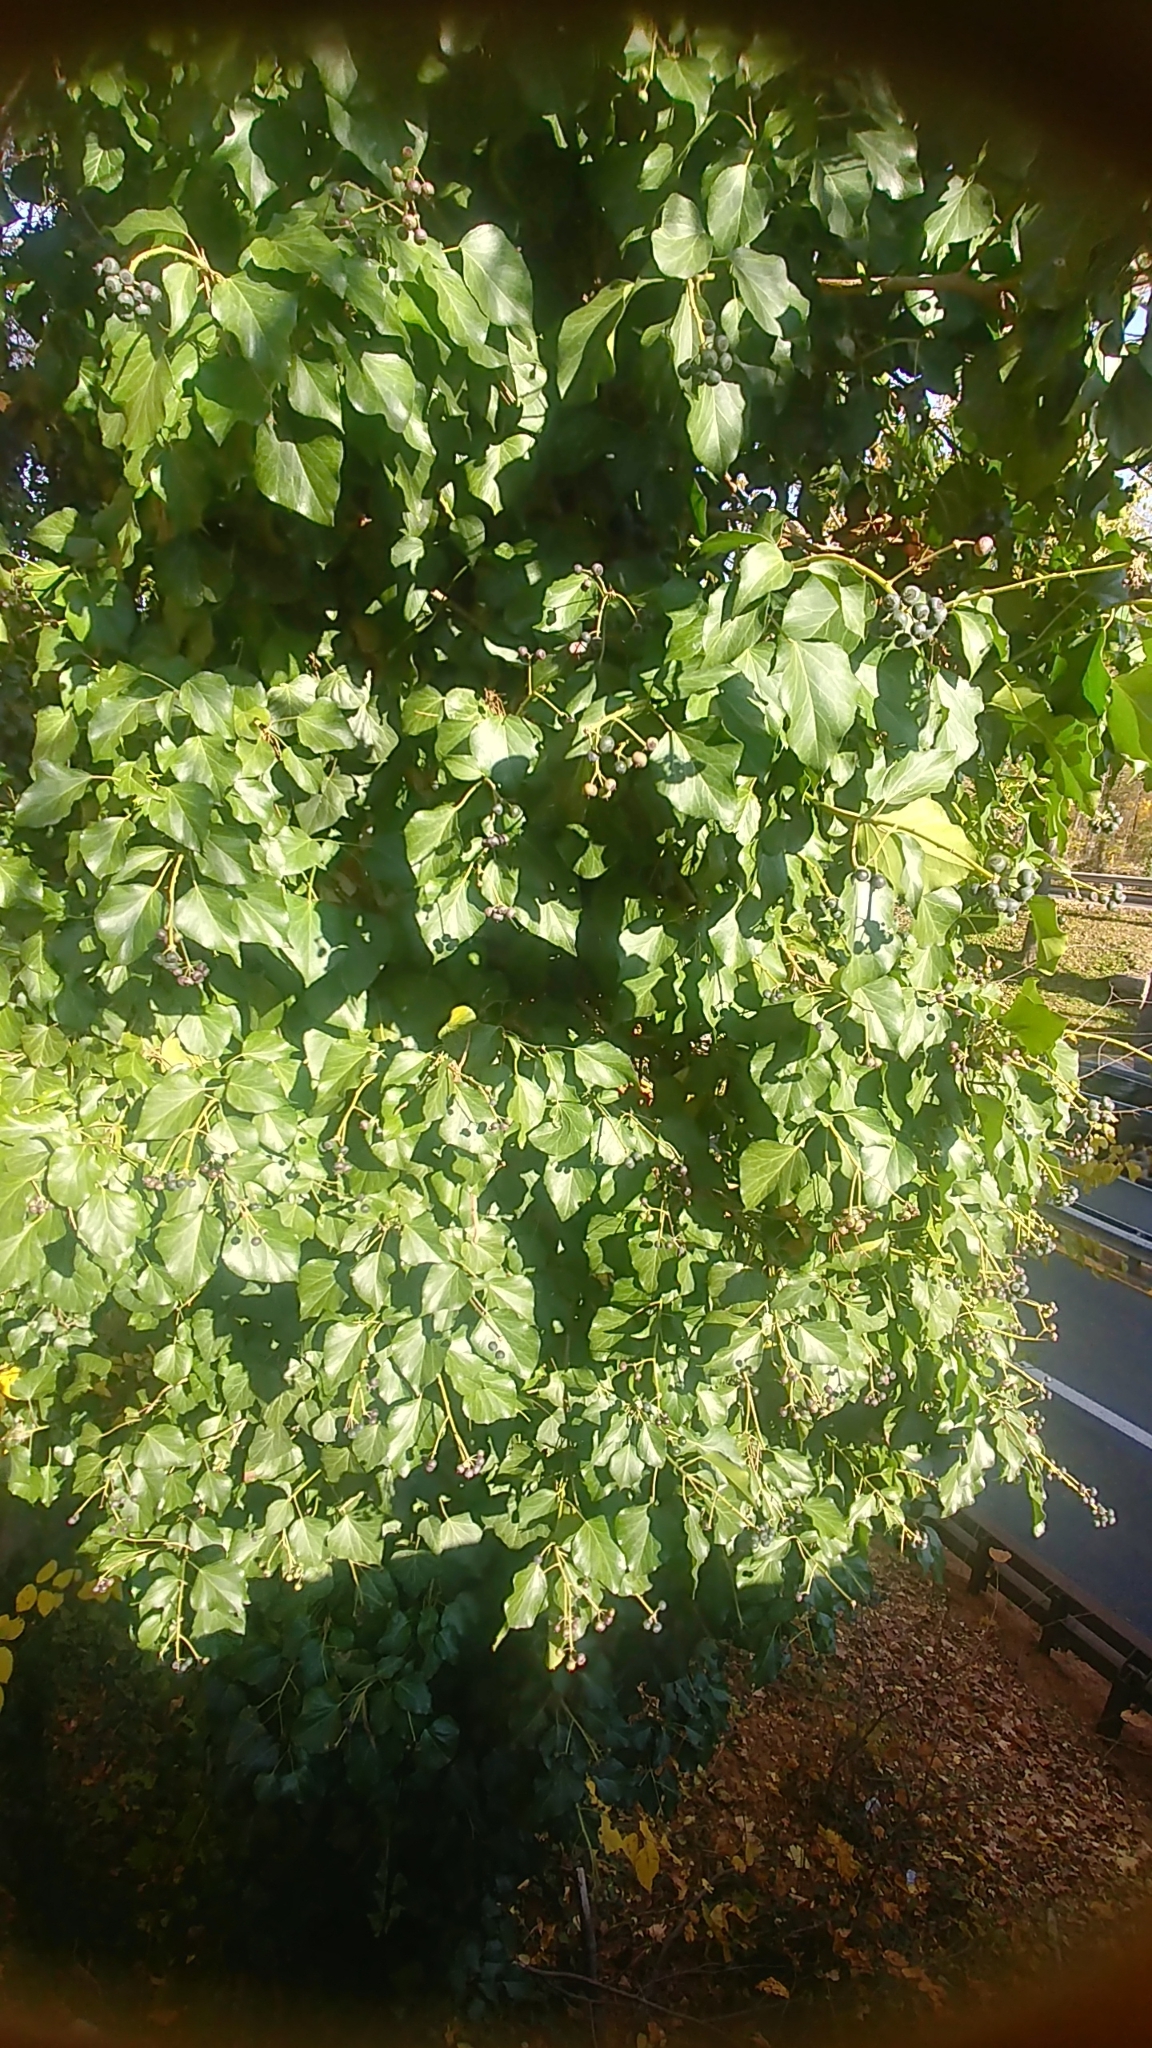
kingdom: Plantae
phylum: Tracheophyta
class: Magnoliopsida
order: Apiales
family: Araliaceae
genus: Hedera
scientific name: Hedera helix
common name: Ivy
